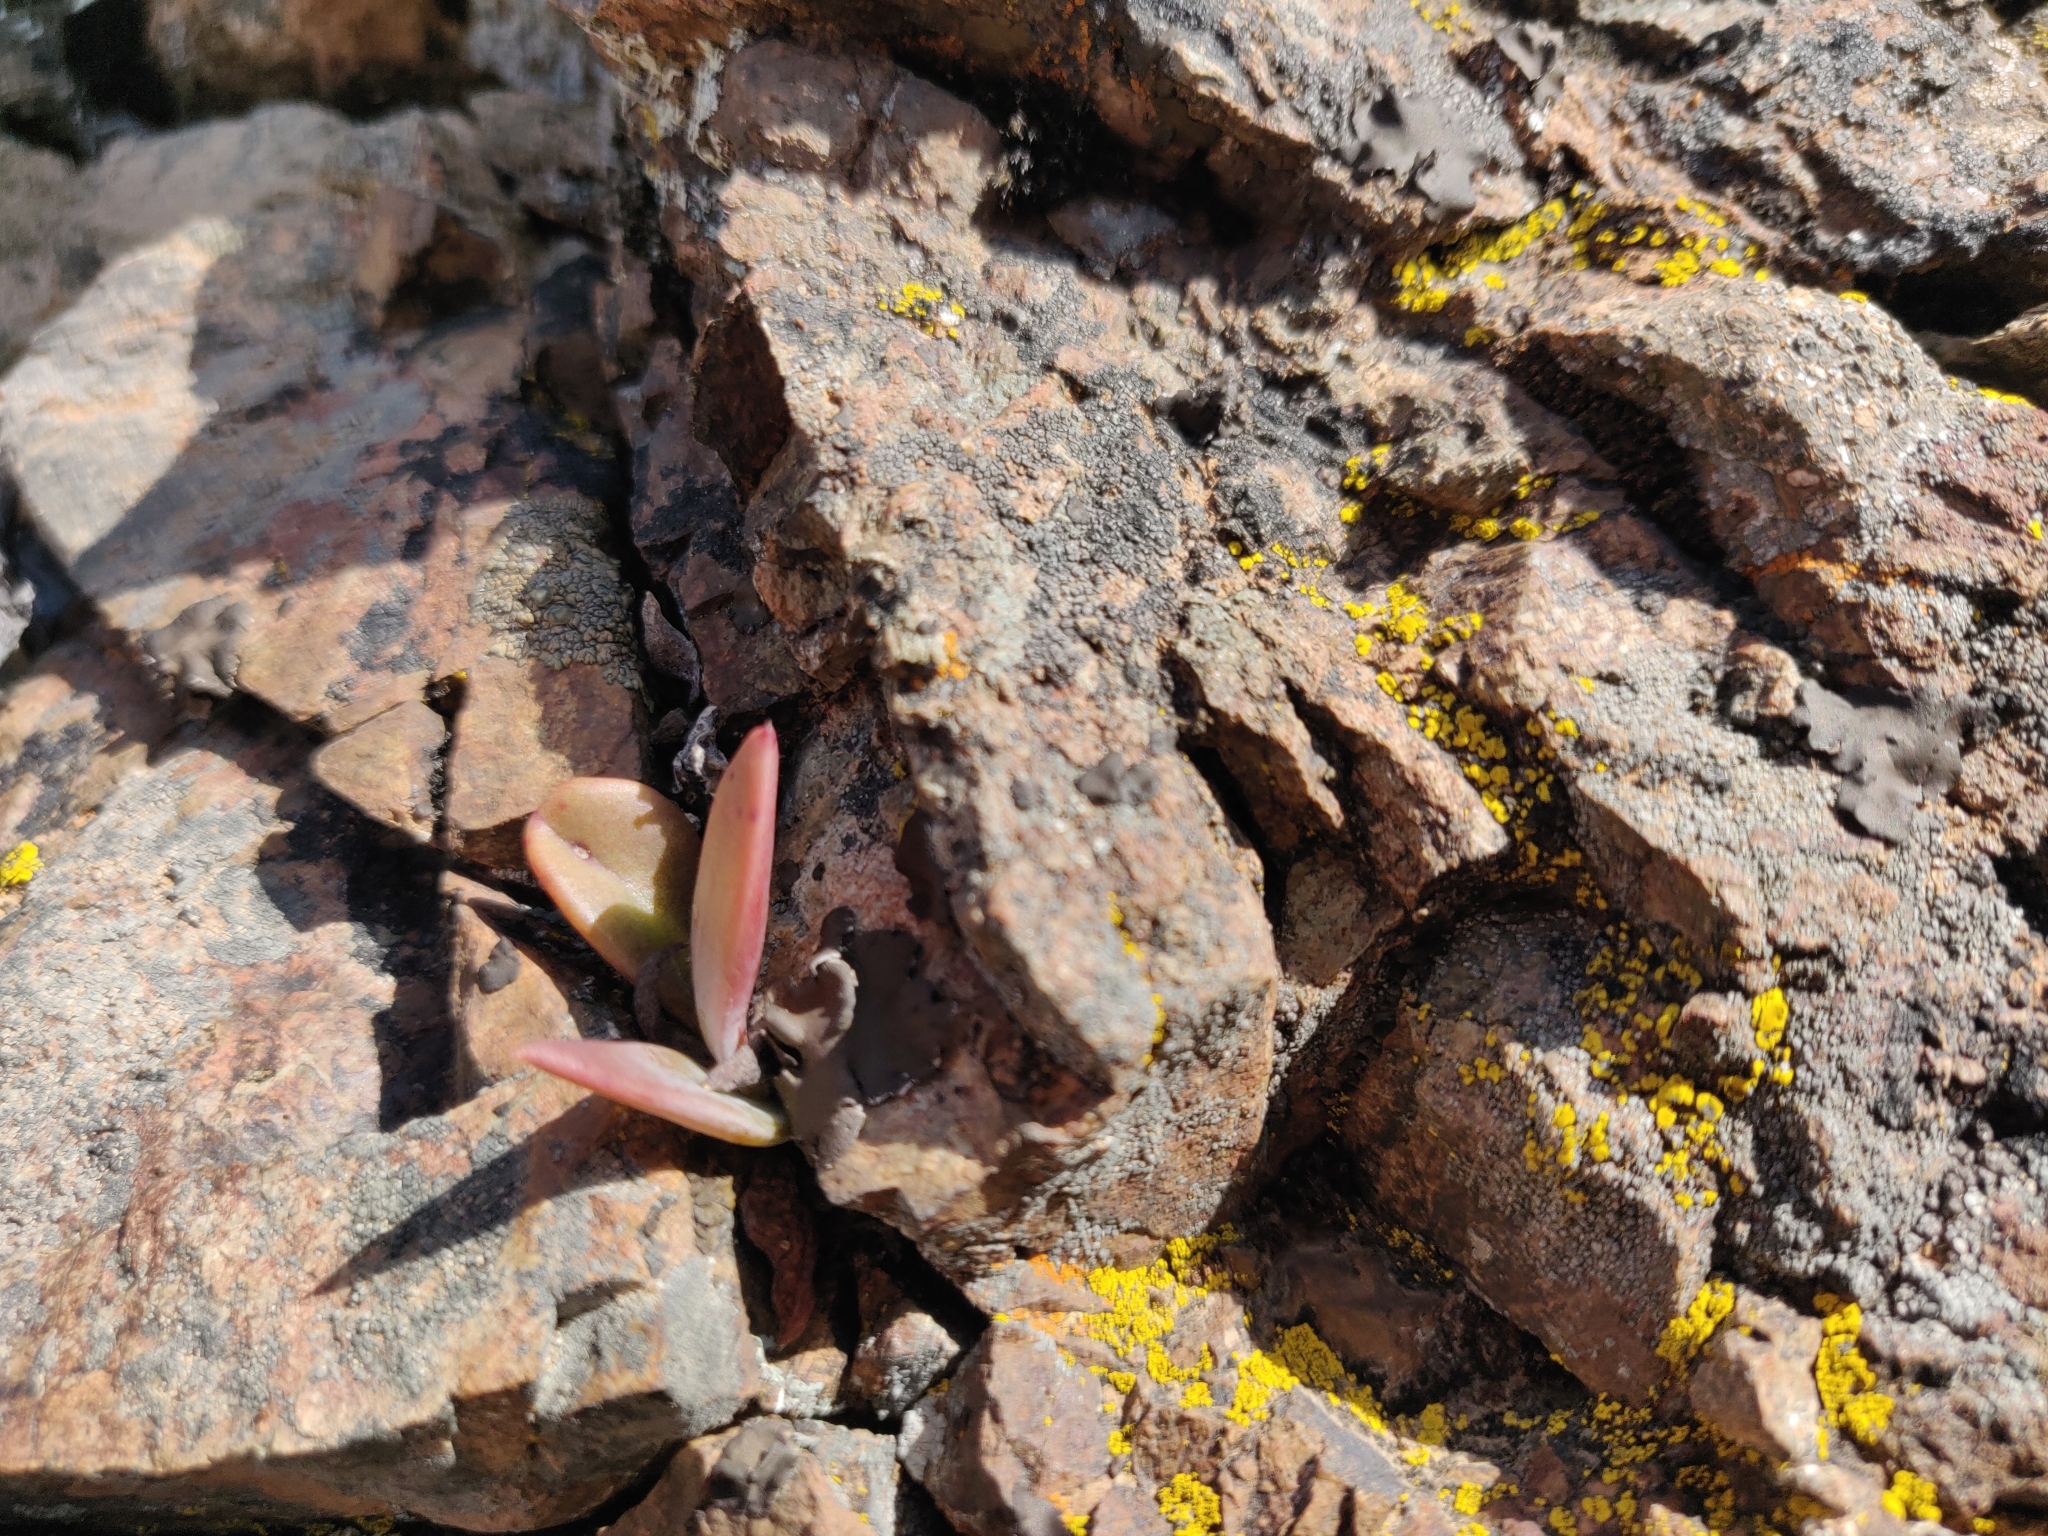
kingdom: Plantae
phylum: Tracheophyta
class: Magnoliopsida
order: Saxifragales
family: Crassulaceae
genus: Dudleya
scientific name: Dudleya cymosa
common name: Canyon dudleya
